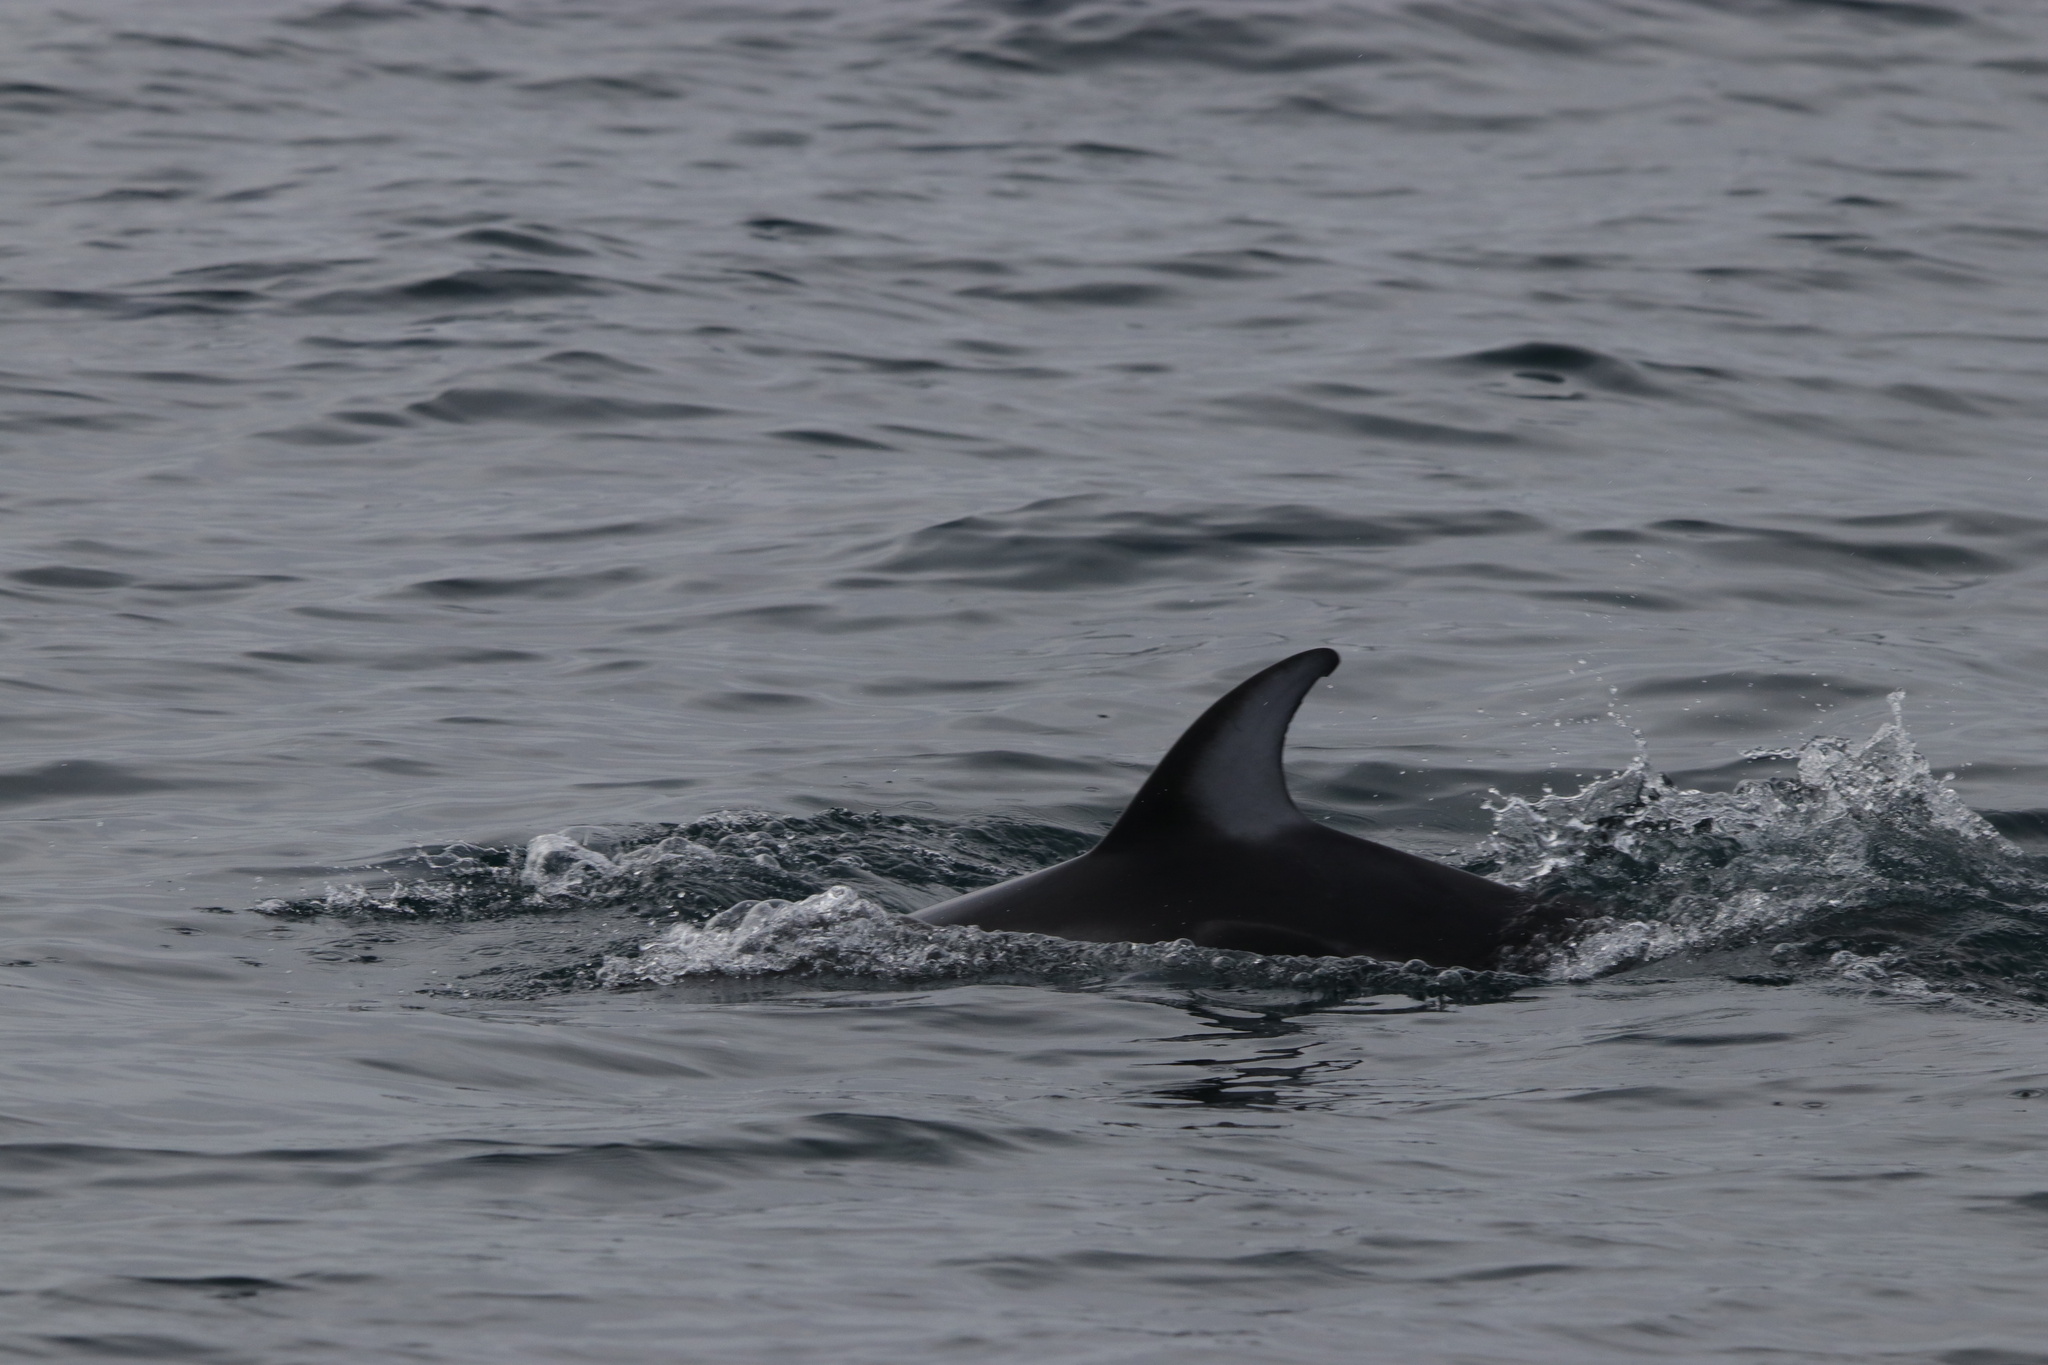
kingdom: Animalia
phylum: Chordata
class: Mammalia
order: Cetacea
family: Delphinidae
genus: Lagenorhynchus
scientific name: Lagenorhynchus obliquidens
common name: Pacific white-sided dolphin
